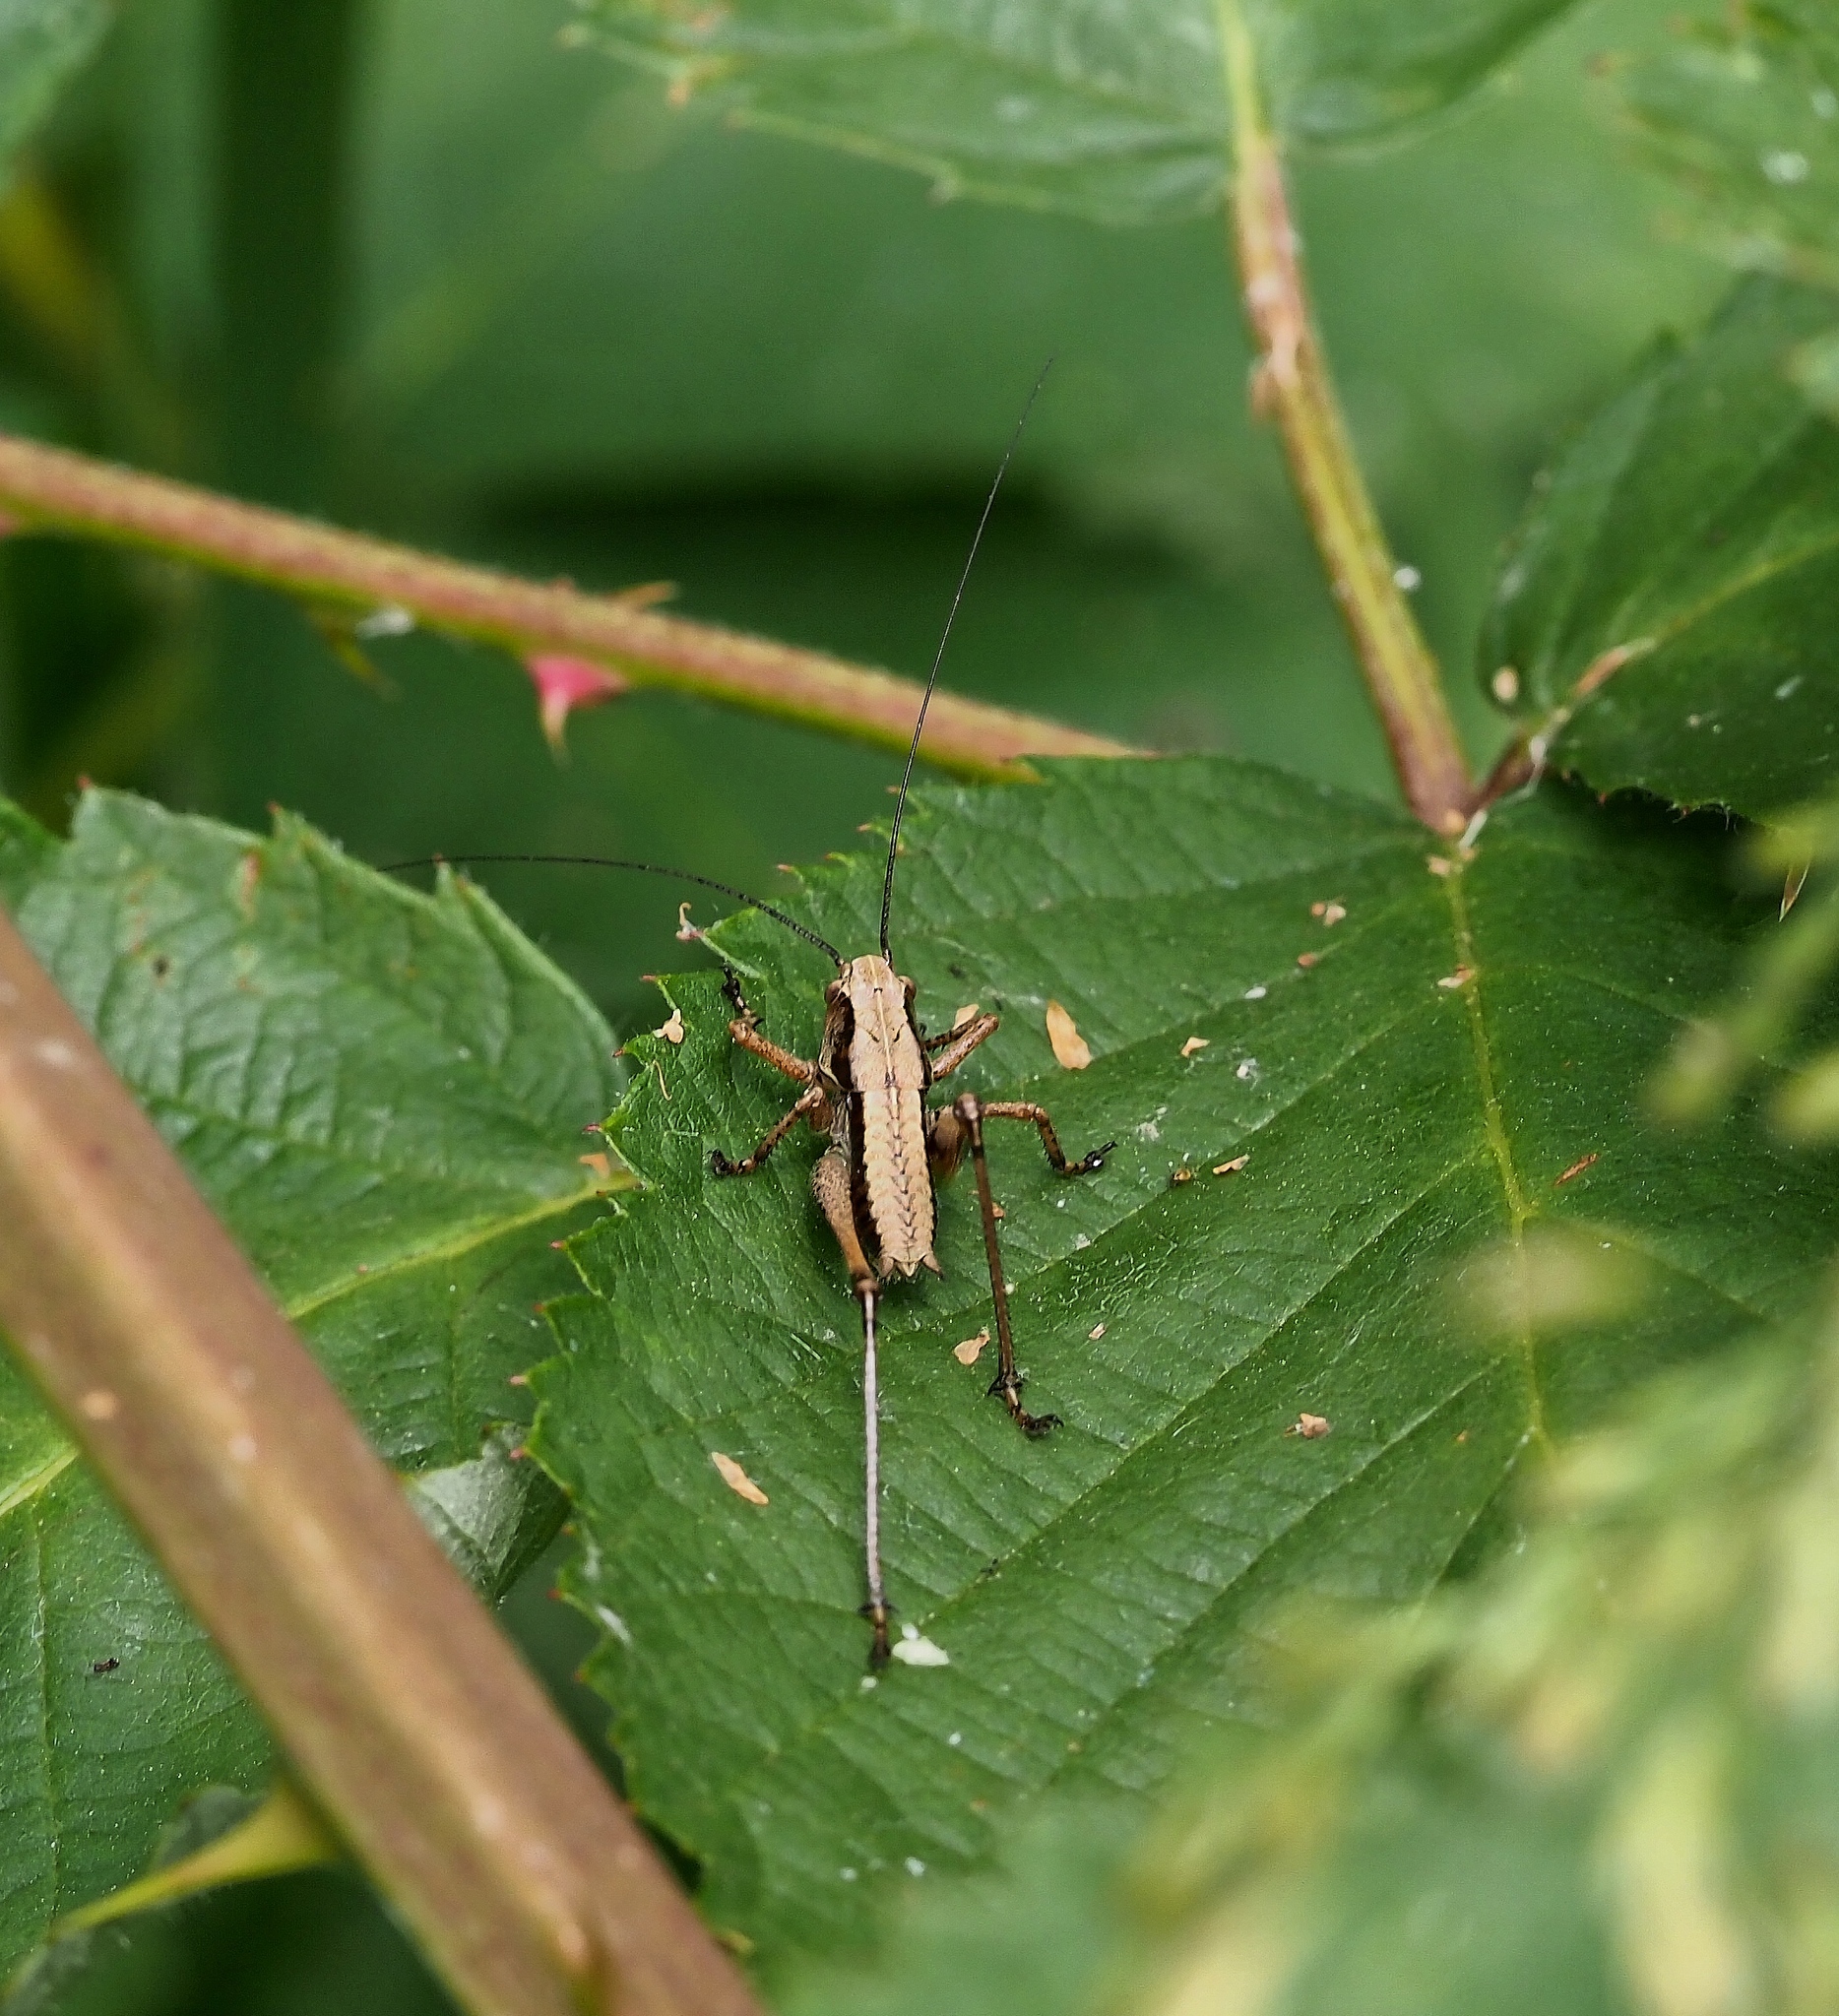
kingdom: Animalia
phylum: Arthropoda
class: Insecta
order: Orthoptera
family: Tettigoniidae
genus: Pholidoptera
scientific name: Pholidoptera griseoaptera
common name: Dark bush-cricket
